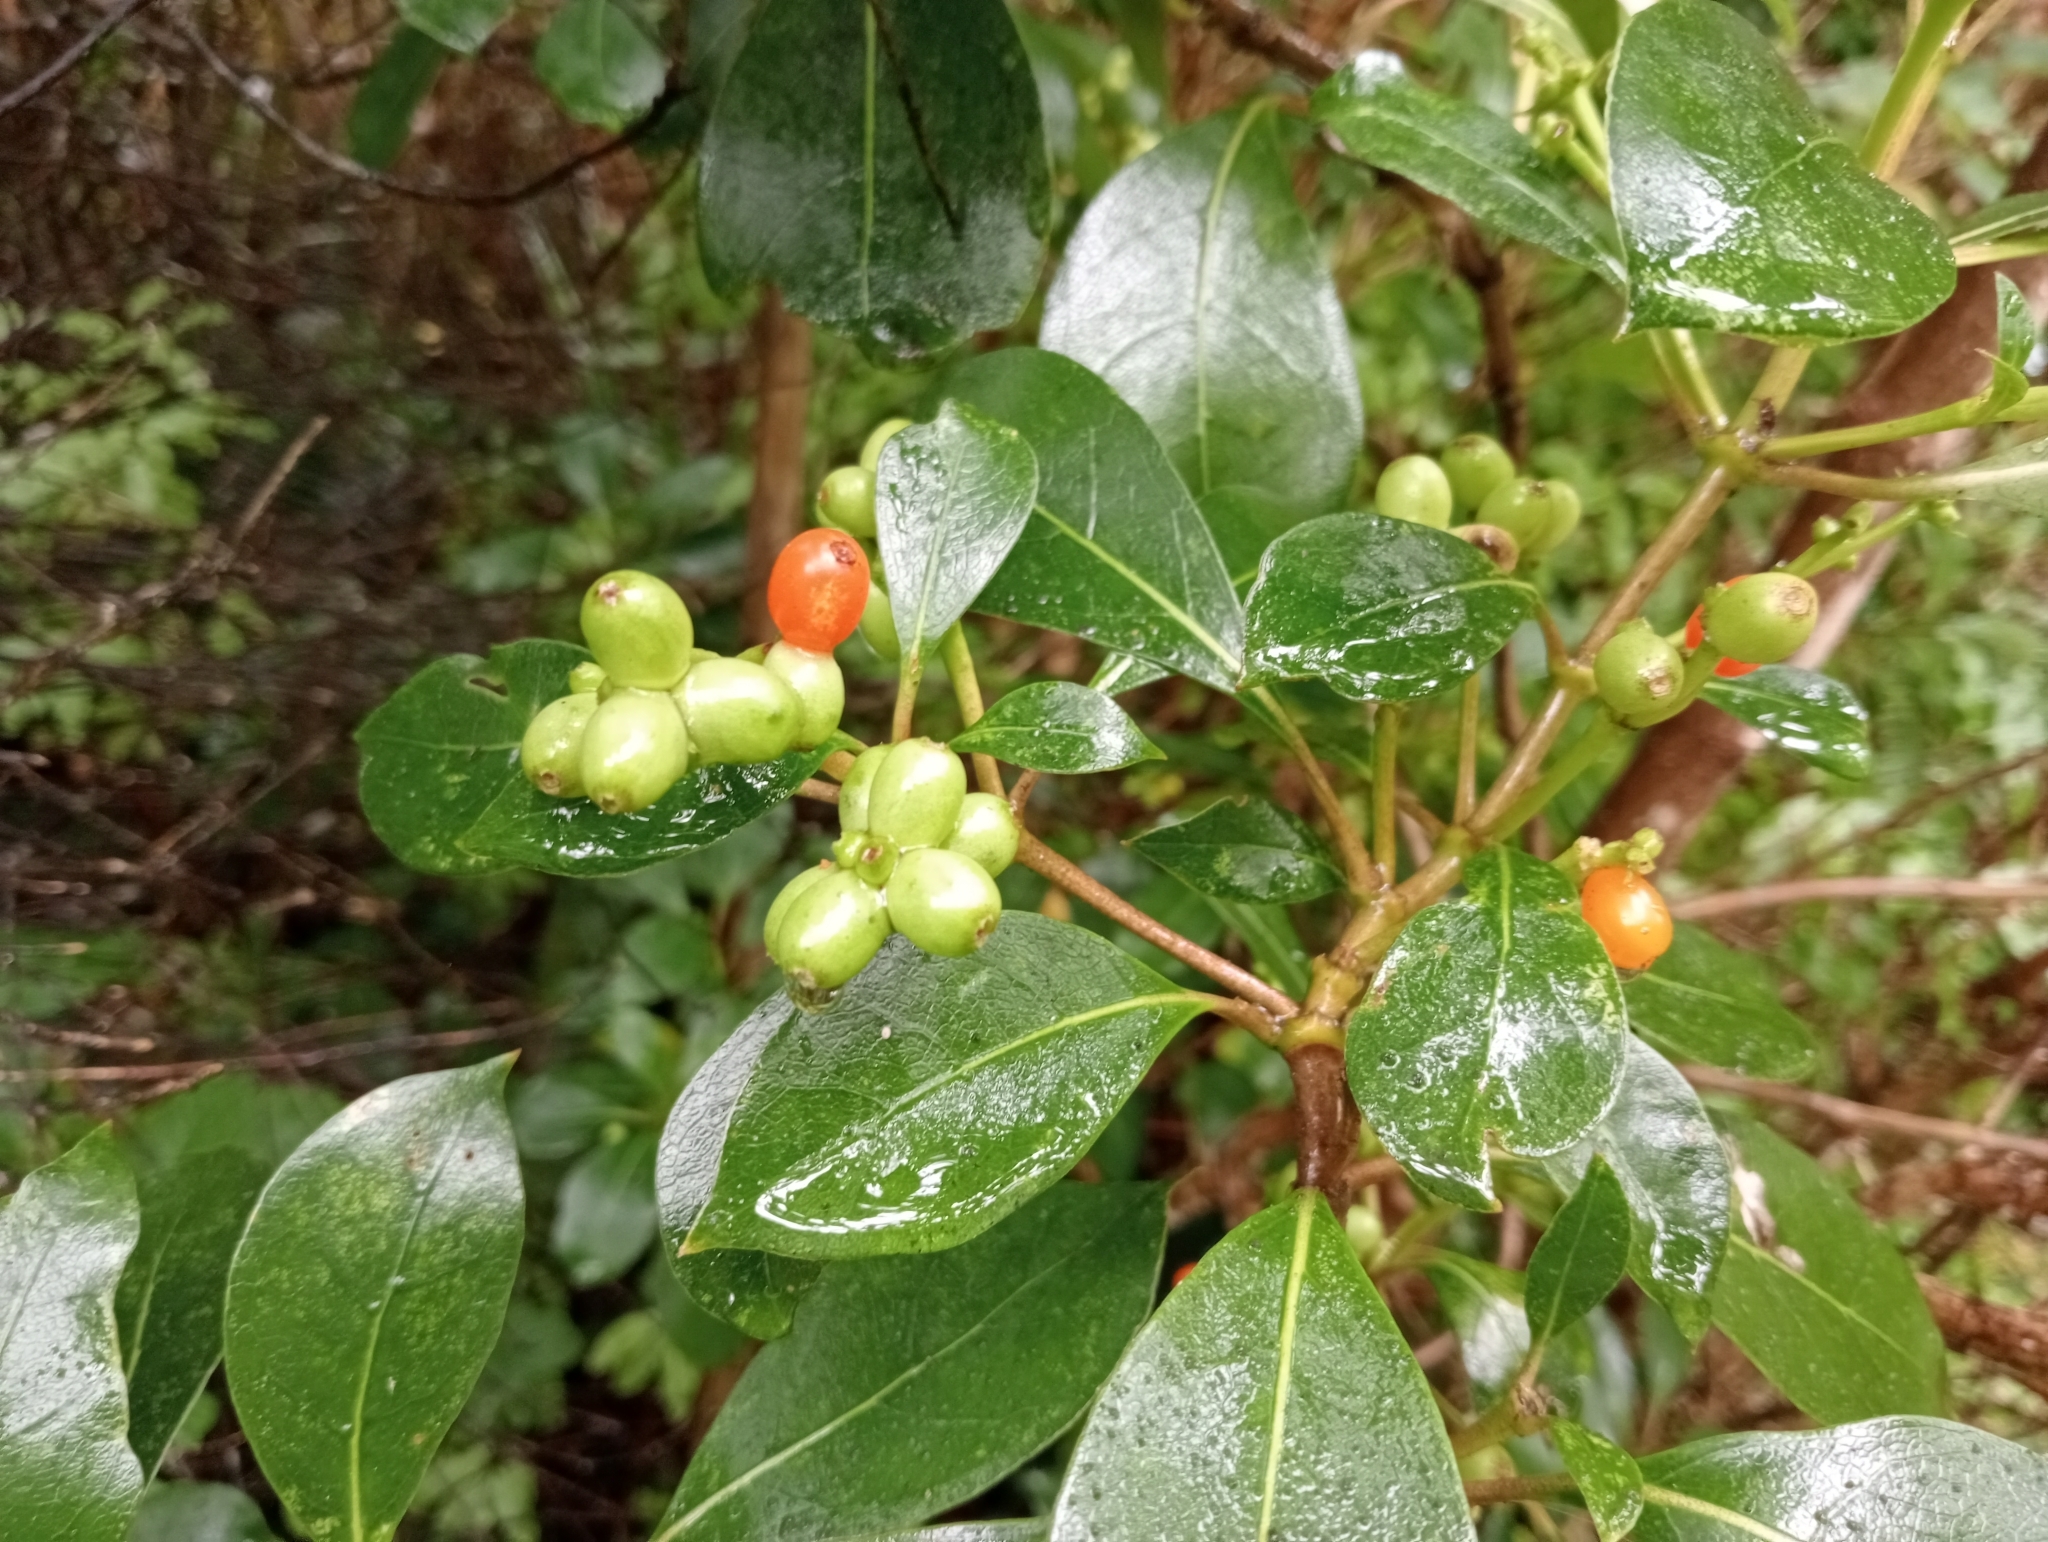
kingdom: Plantae
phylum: Tracheophyta
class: Magnoliopsida
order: Gentianales
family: Rubiaceae
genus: Coprosma
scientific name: Coprosma lucida
